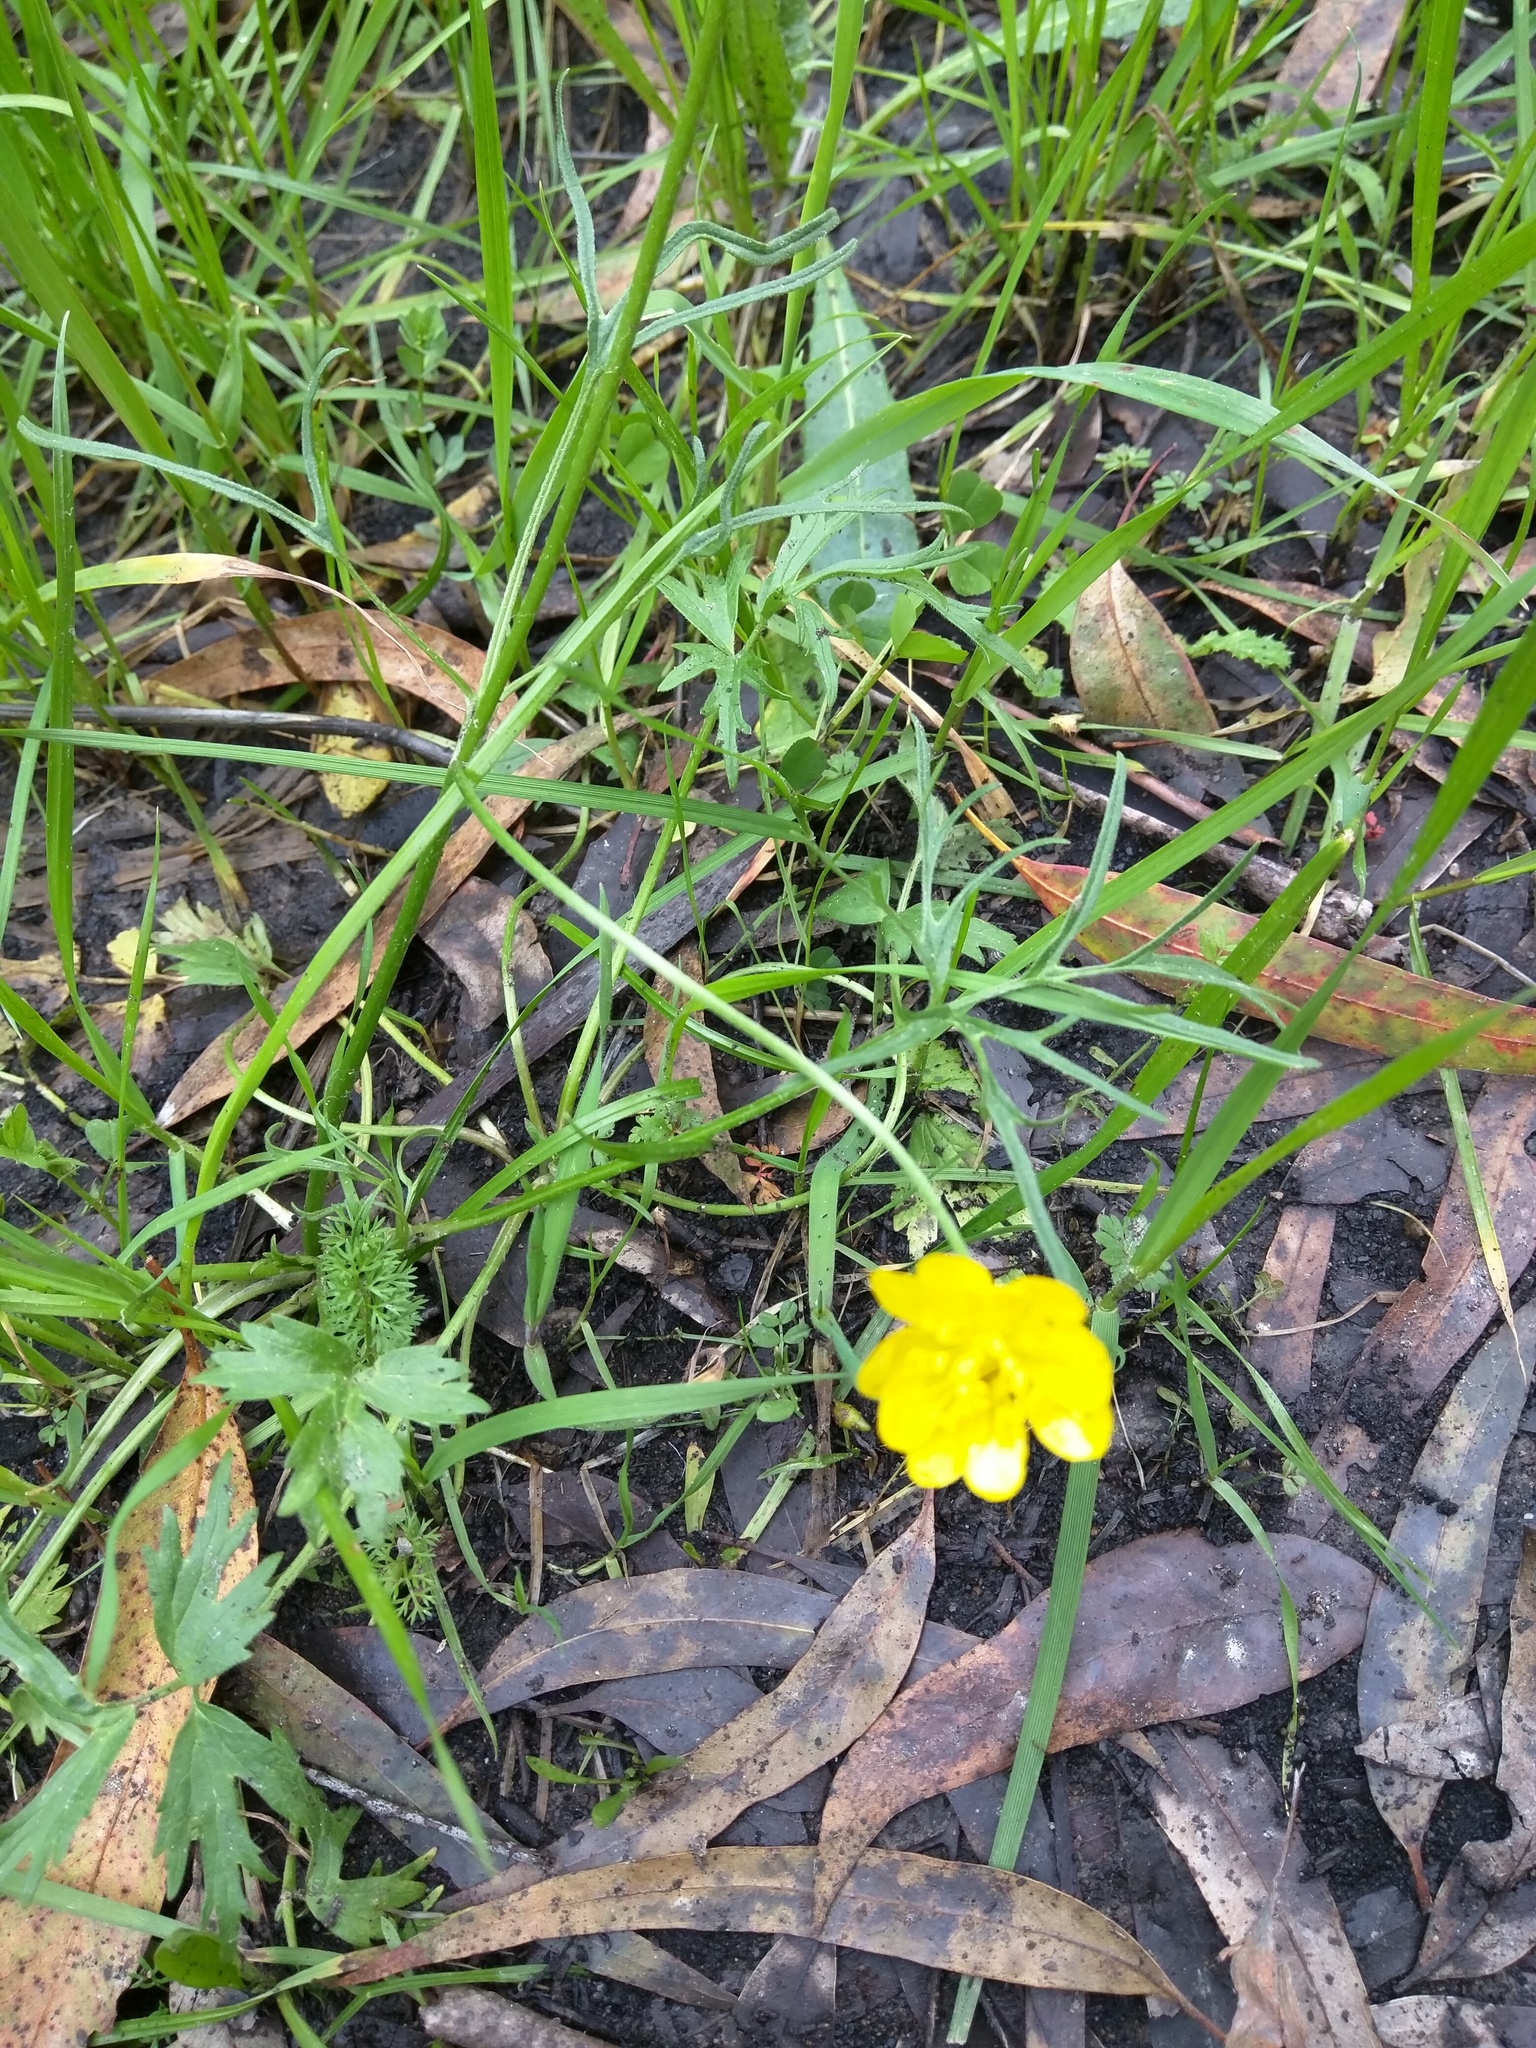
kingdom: Plantae
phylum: Tracheophyta
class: Magnoliopsida
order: Ranunculales
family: Ranunculaceae
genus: Ranunculus
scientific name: Ranunculus californicus
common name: California buttercup
